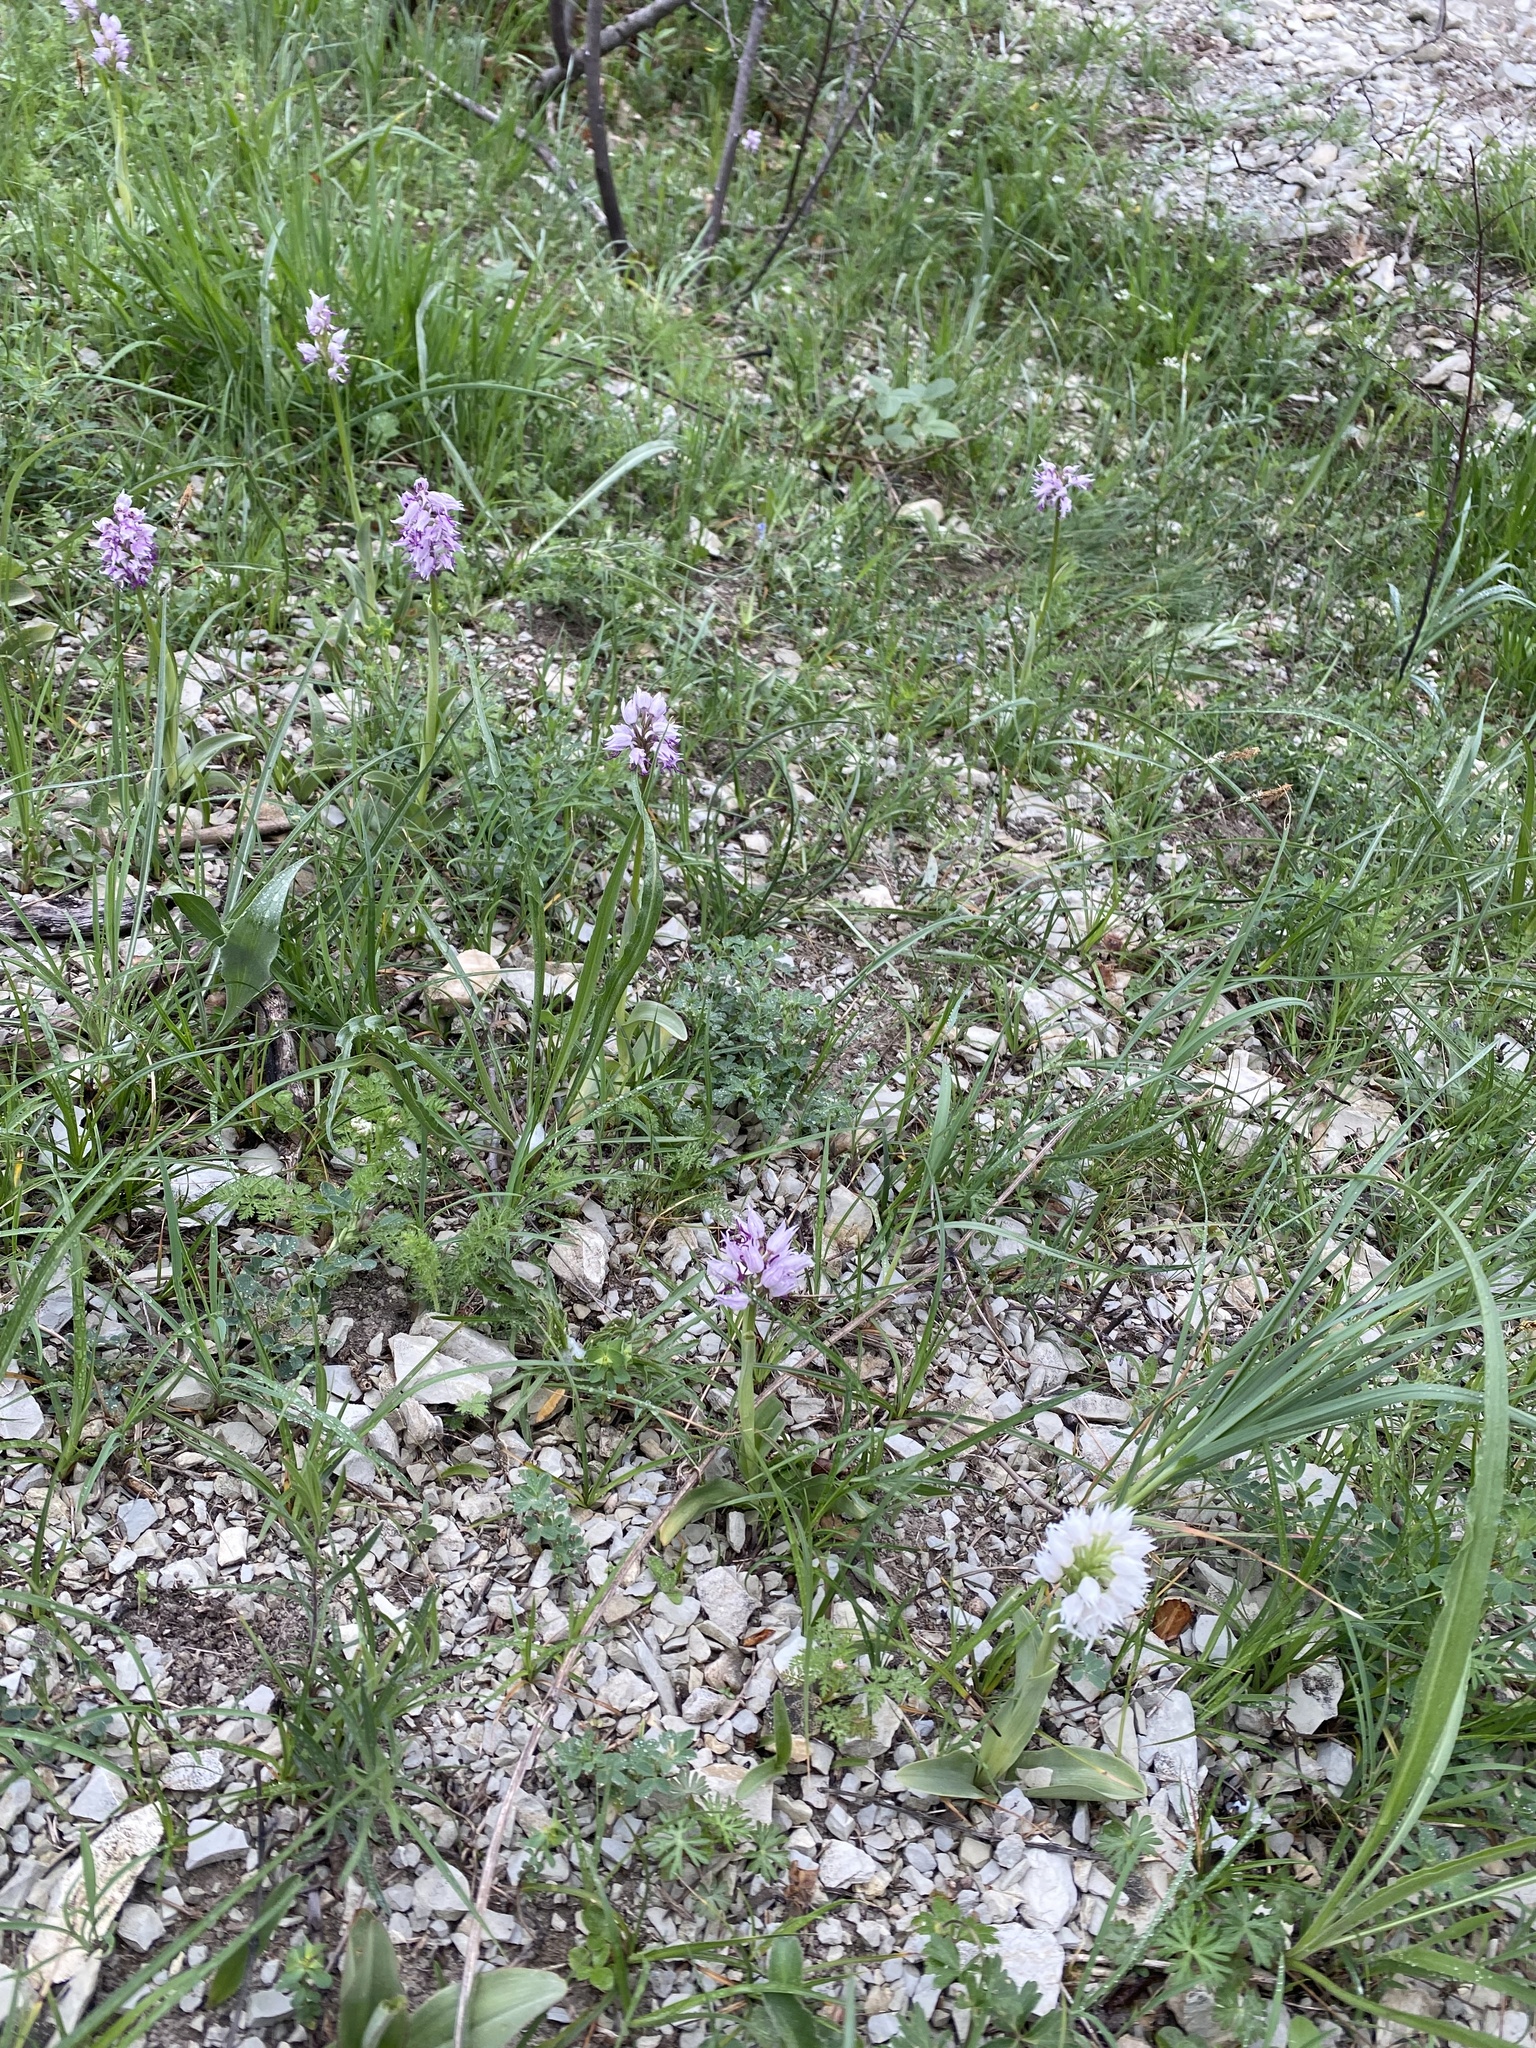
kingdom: Plantae
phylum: Tracheophyta
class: Liliopsida
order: Asparagales
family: Orchidaceae
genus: Orchis
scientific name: Orchis simia
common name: Monkey orchid
